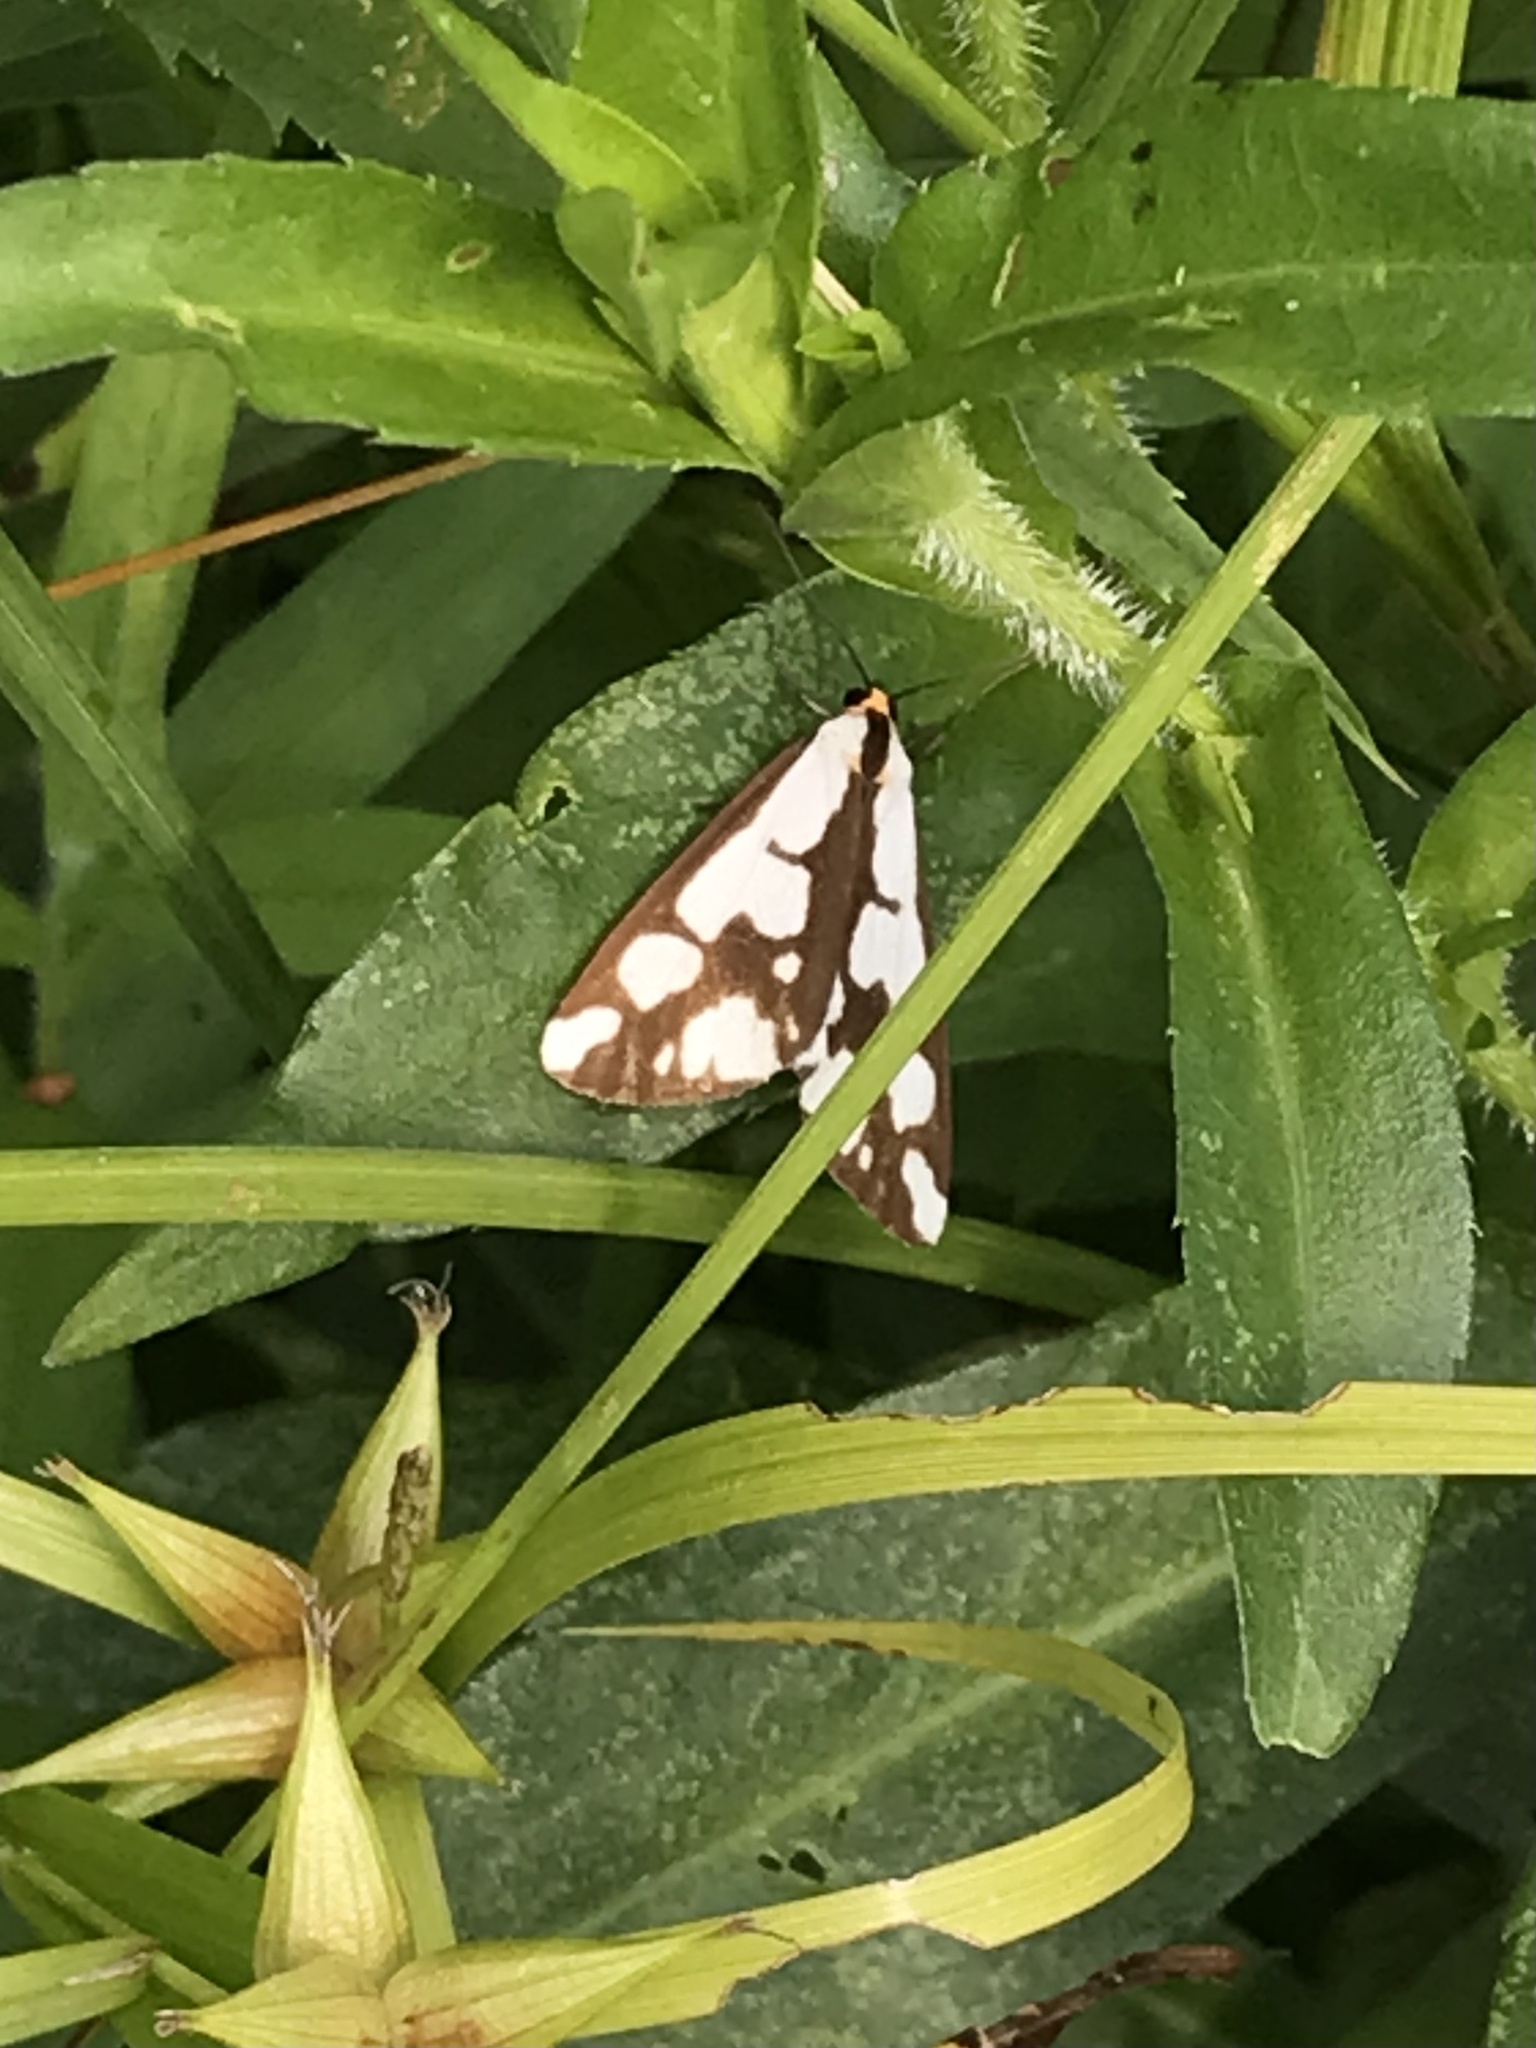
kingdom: Animalia
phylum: Arthropoda
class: Insecta
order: Lepidoptera
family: Erebidae
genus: Haploa
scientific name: Haploa confusa
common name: Confused haploa moth
